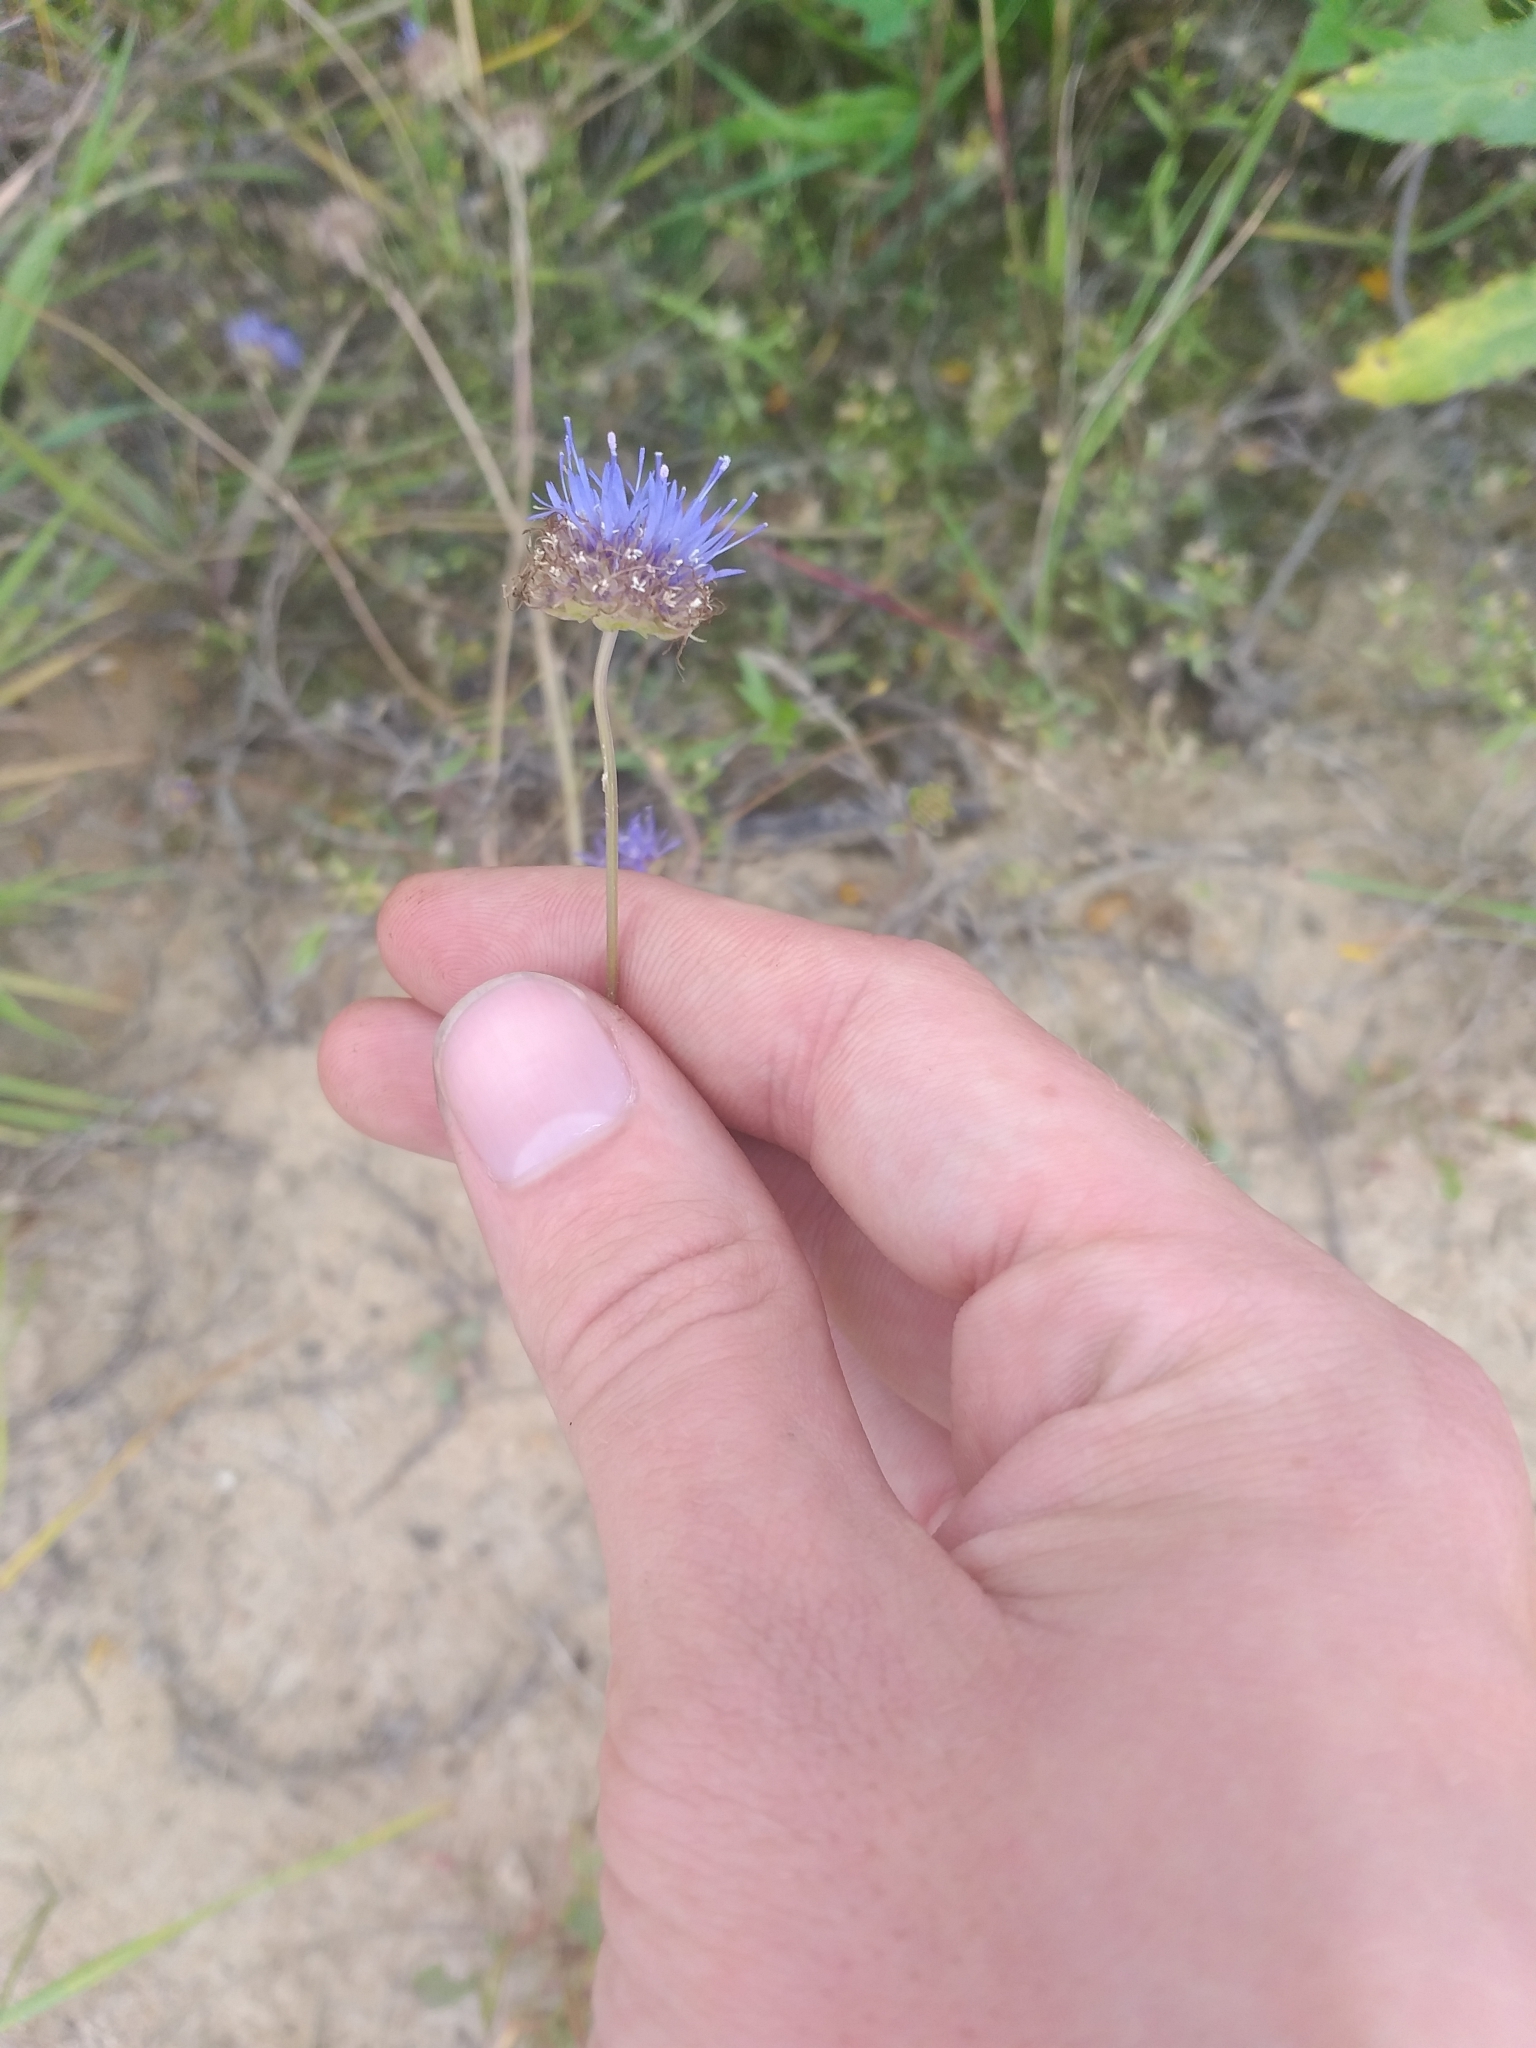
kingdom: Plantae
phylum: Tracheophyta
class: Magnoliopsida
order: Asterales
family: Campanulaceae
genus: Jasione
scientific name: Jasione montana
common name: Sheep's-bit
